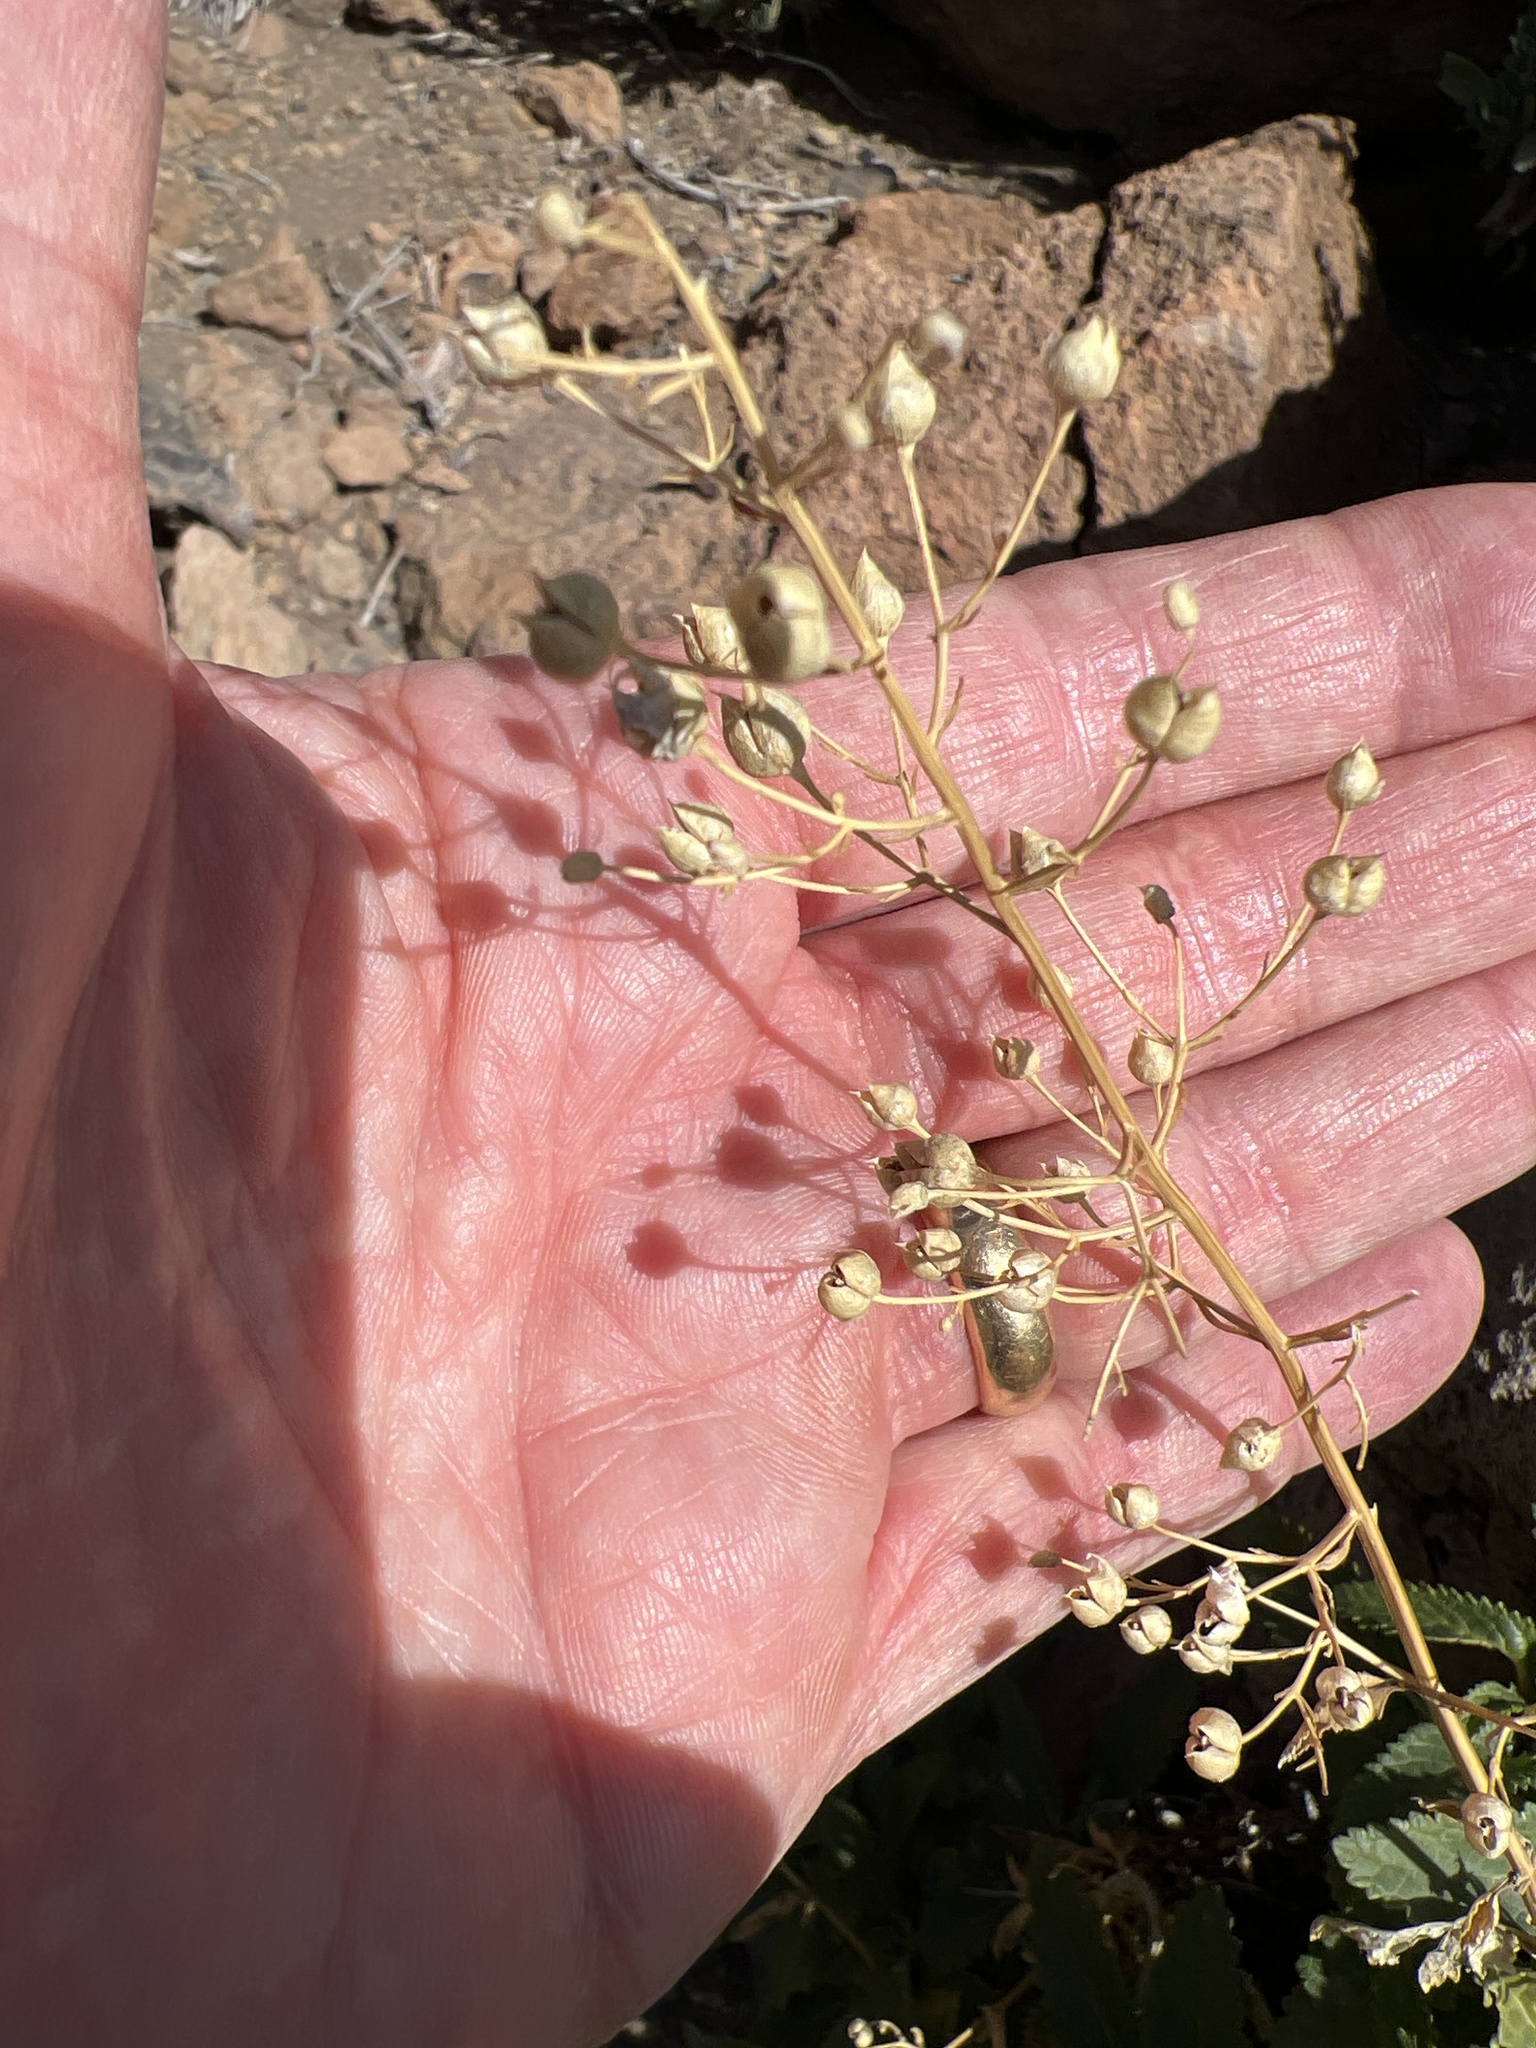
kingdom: Plantae
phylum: Tracheophyta
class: Magnoliopsida
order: Lamiales
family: Scrophulariaceae
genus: Scrophularia
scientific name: Scrophularia glabrata
